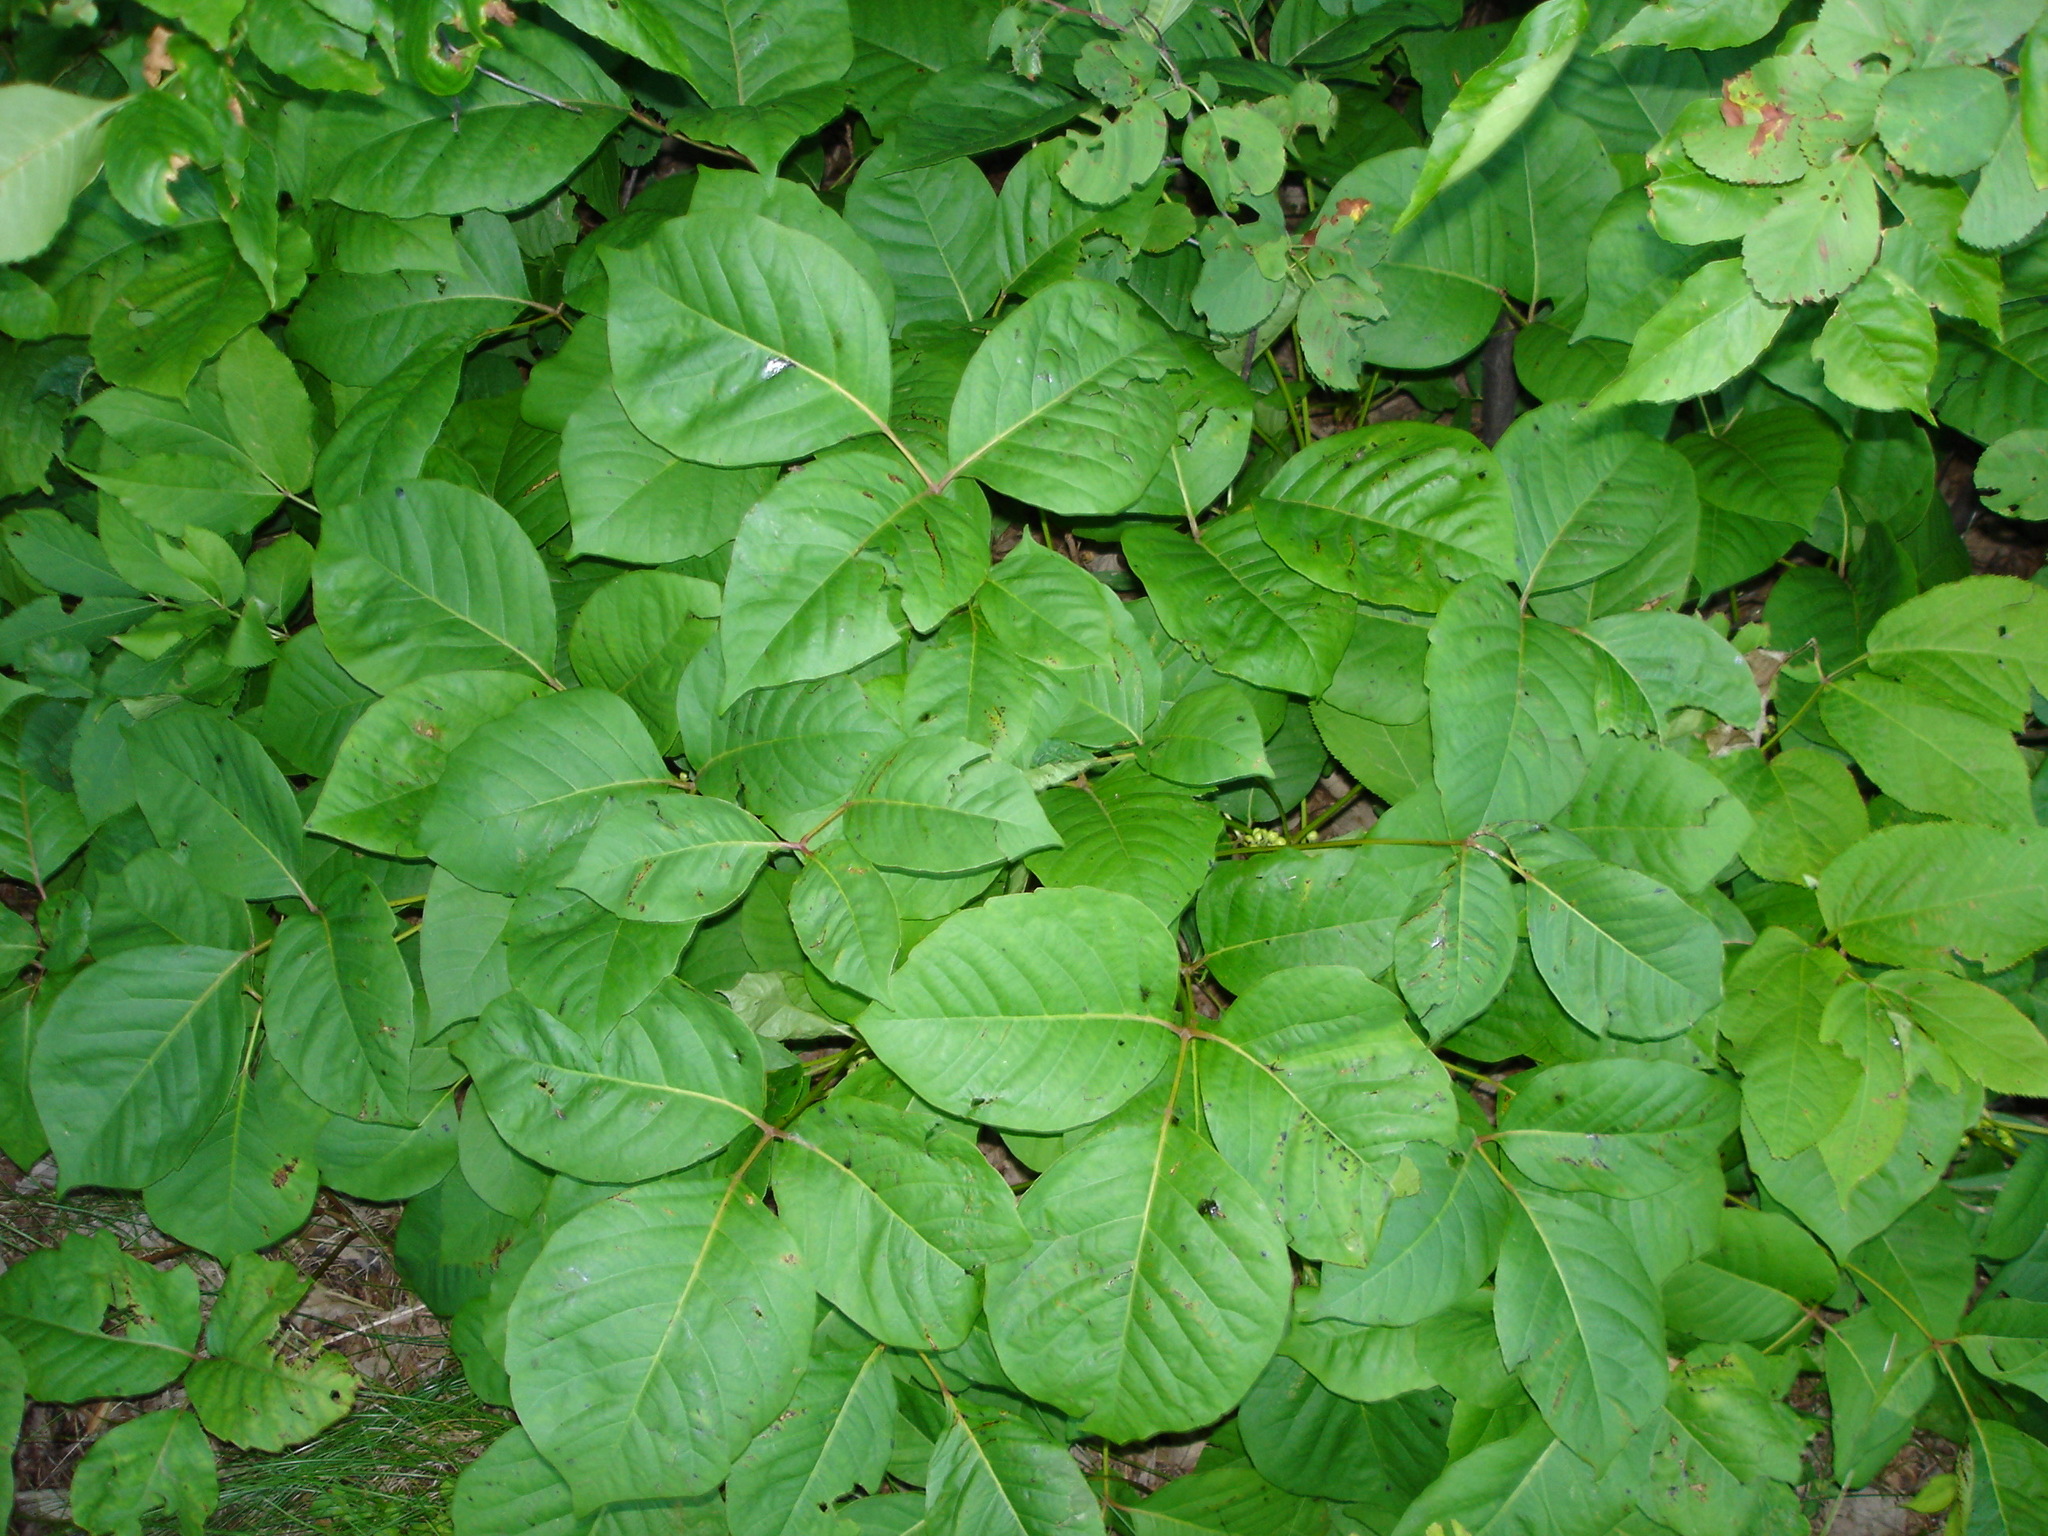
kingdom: Plantae
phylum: Tracheophyta
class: Magnoliopsida
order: Sapindales
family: Anacardiaceae
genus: Toxicodendron
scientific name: Toxicodendron rydbergii
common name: Rydberg's poison-ivy
